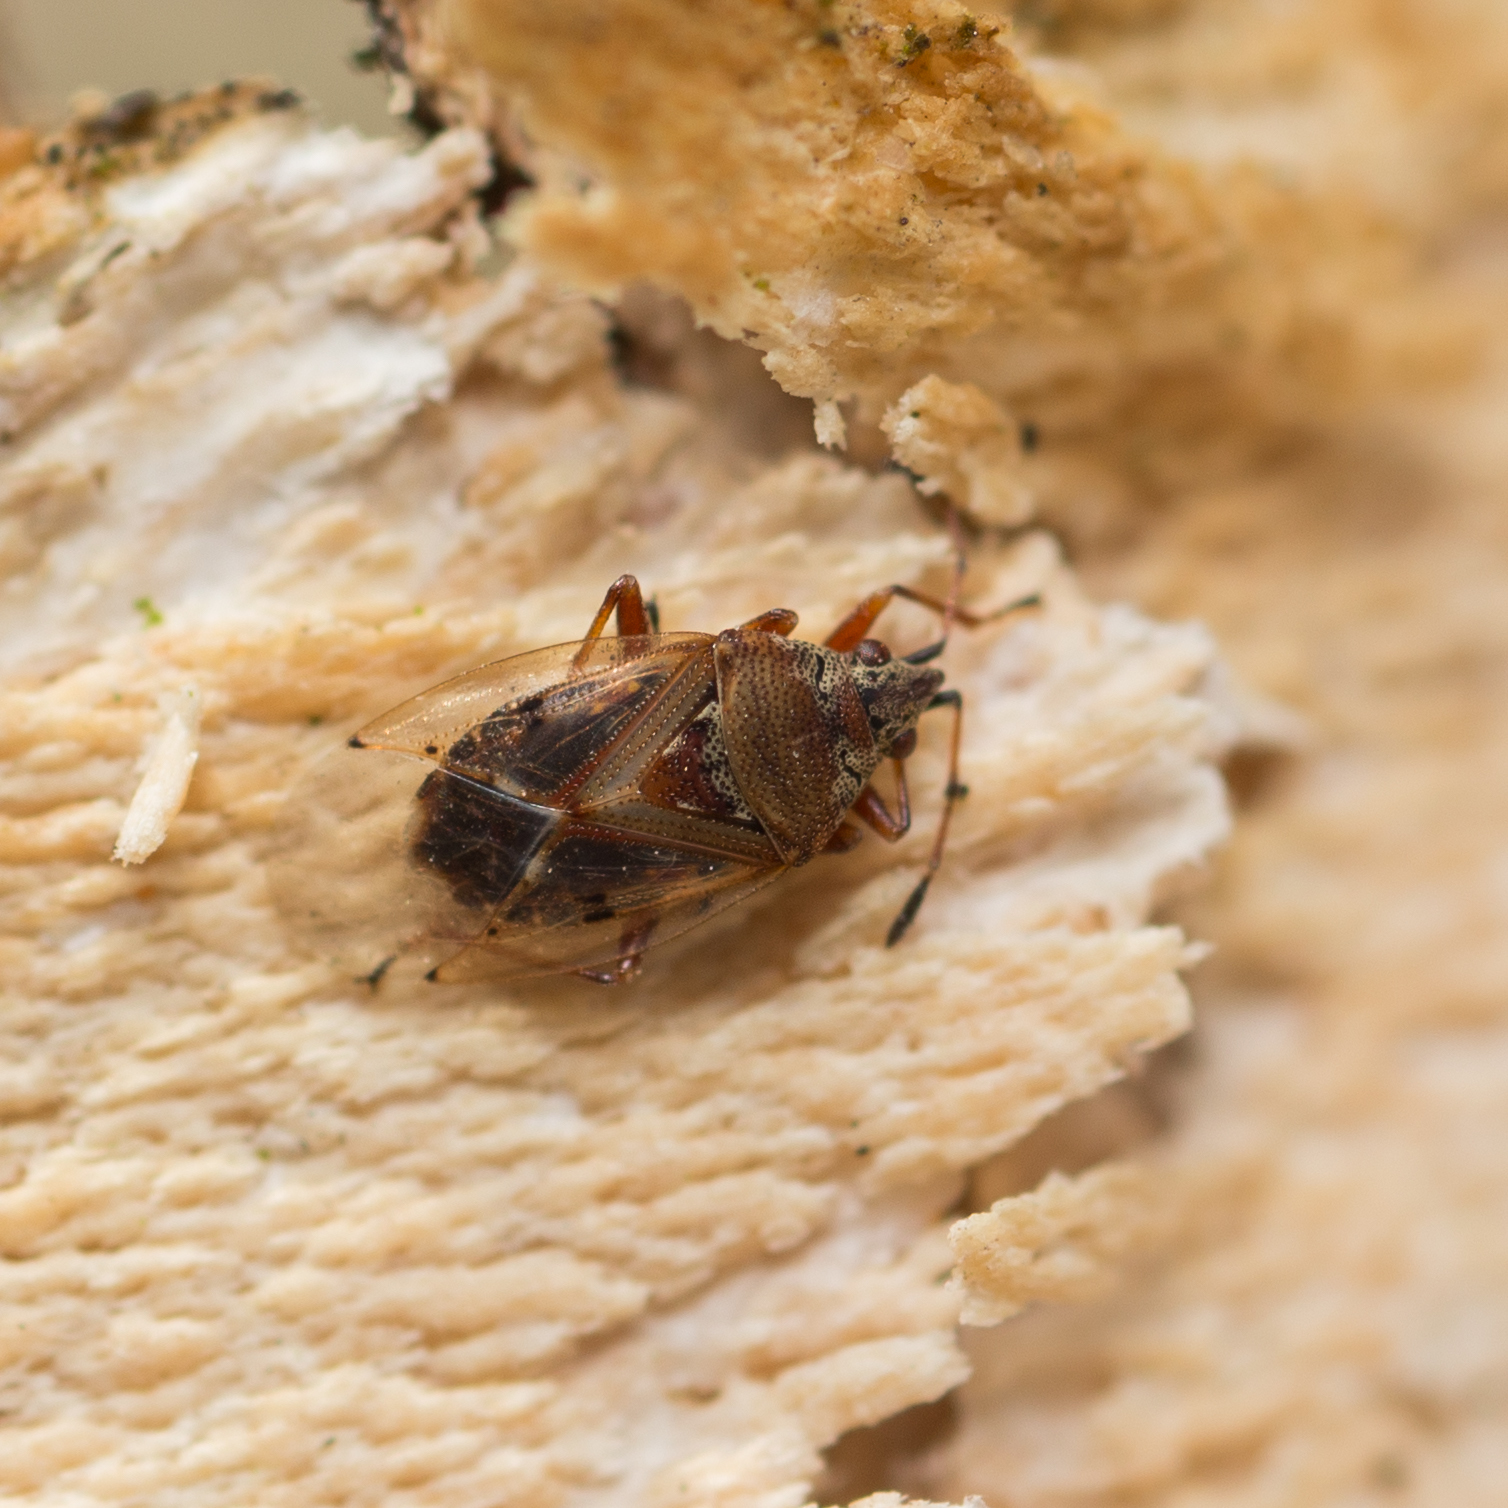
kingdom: Animalia
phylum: Arthropoda
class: Insecta
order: Hemiptera
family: Lygaeidae
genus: Kleidocerys
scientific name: Kleidocerys resedae
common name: Birch catkin bug
